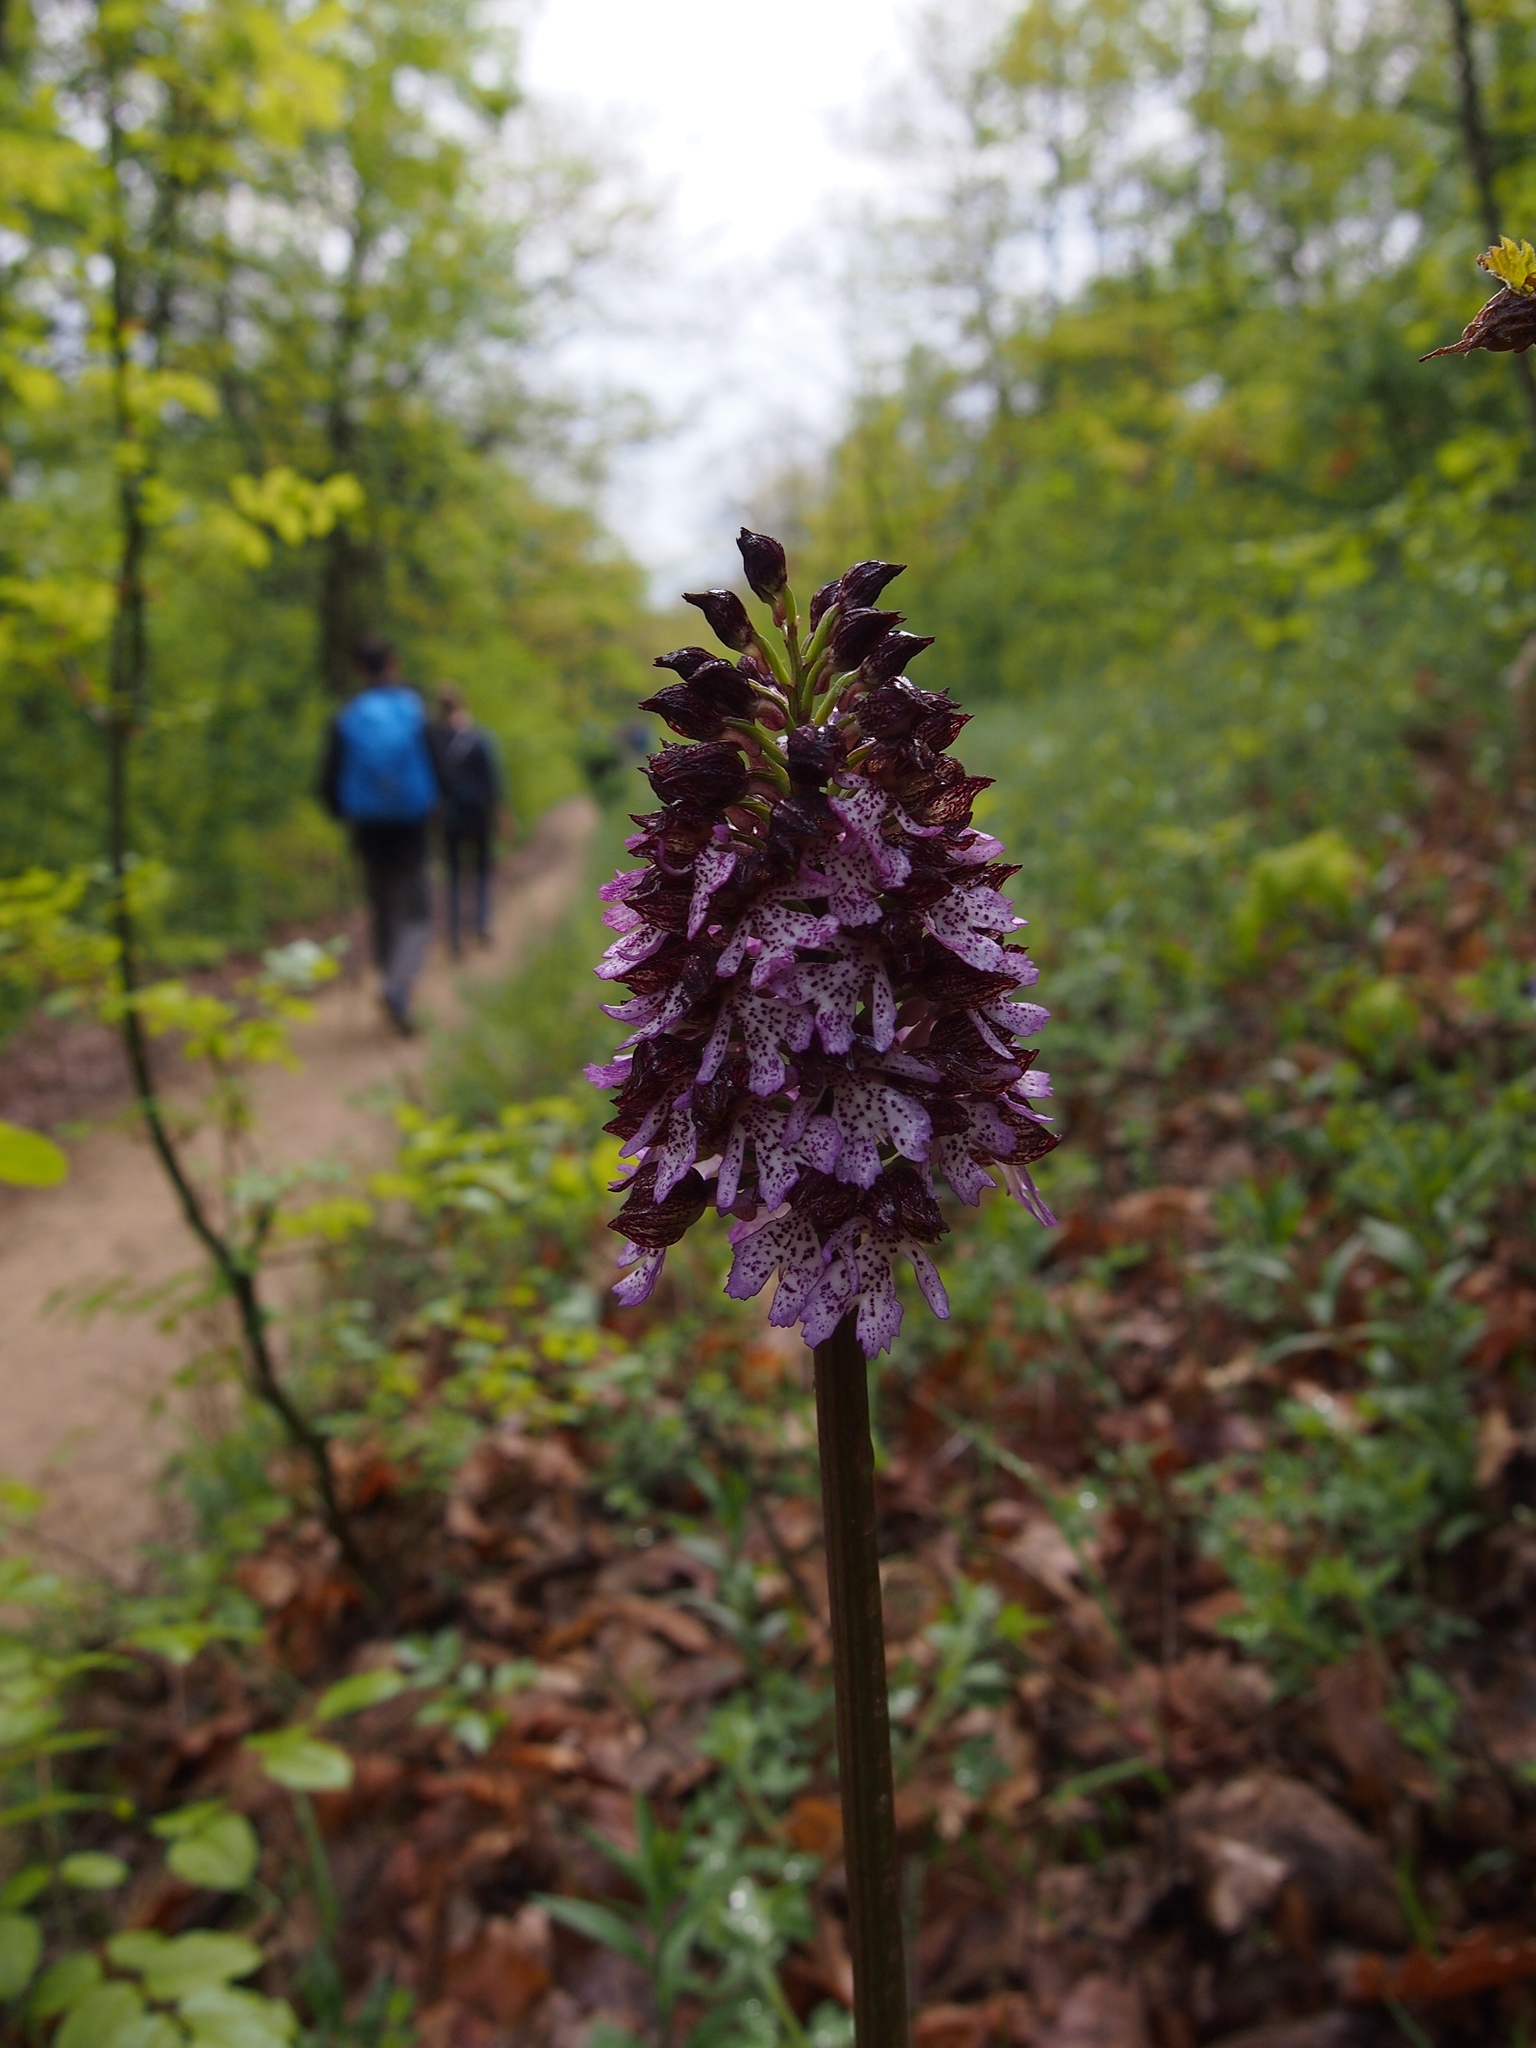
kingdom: Plantae
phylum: Tracheophyta
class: Liliopsida
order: Asparagales
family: Orchidaceae
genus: Orchis
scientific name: Orchis purpurea
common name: Lady orchid
